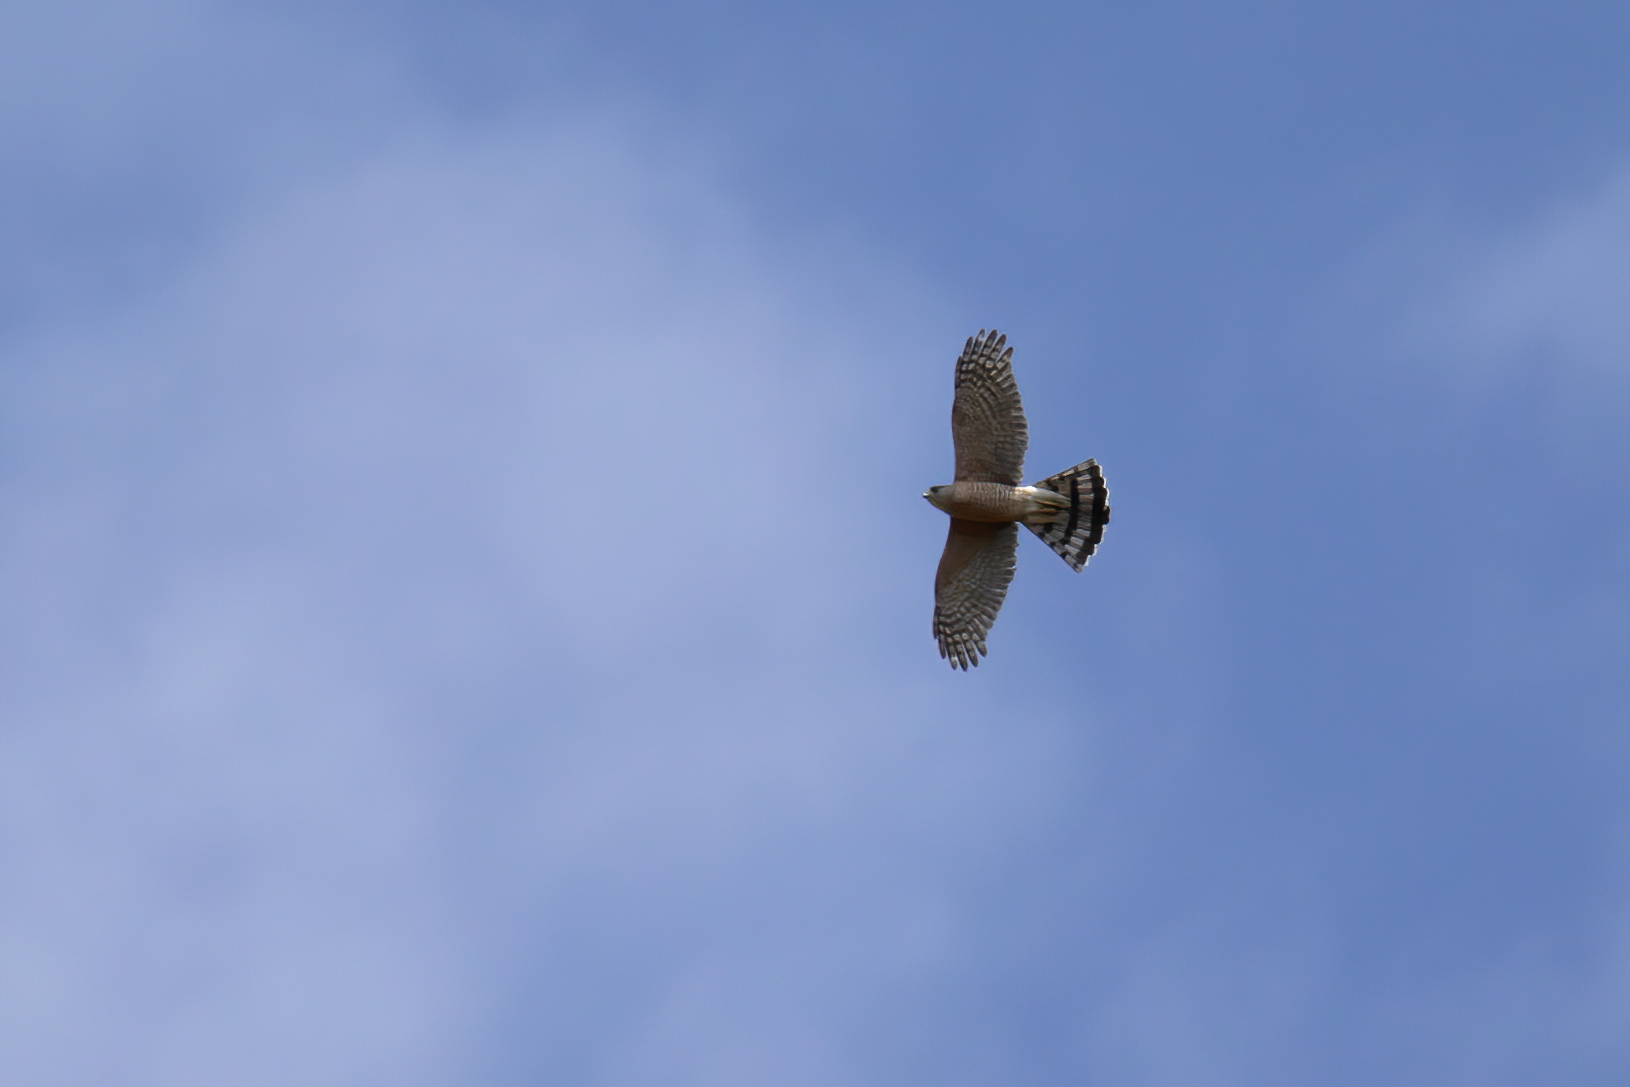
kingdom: Animalia
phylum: Chordata
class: Aves
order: Accipitriformes
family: Accipitridae
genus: Accipiter
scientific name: Accipiter cooperii
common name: Cooper's hawk
